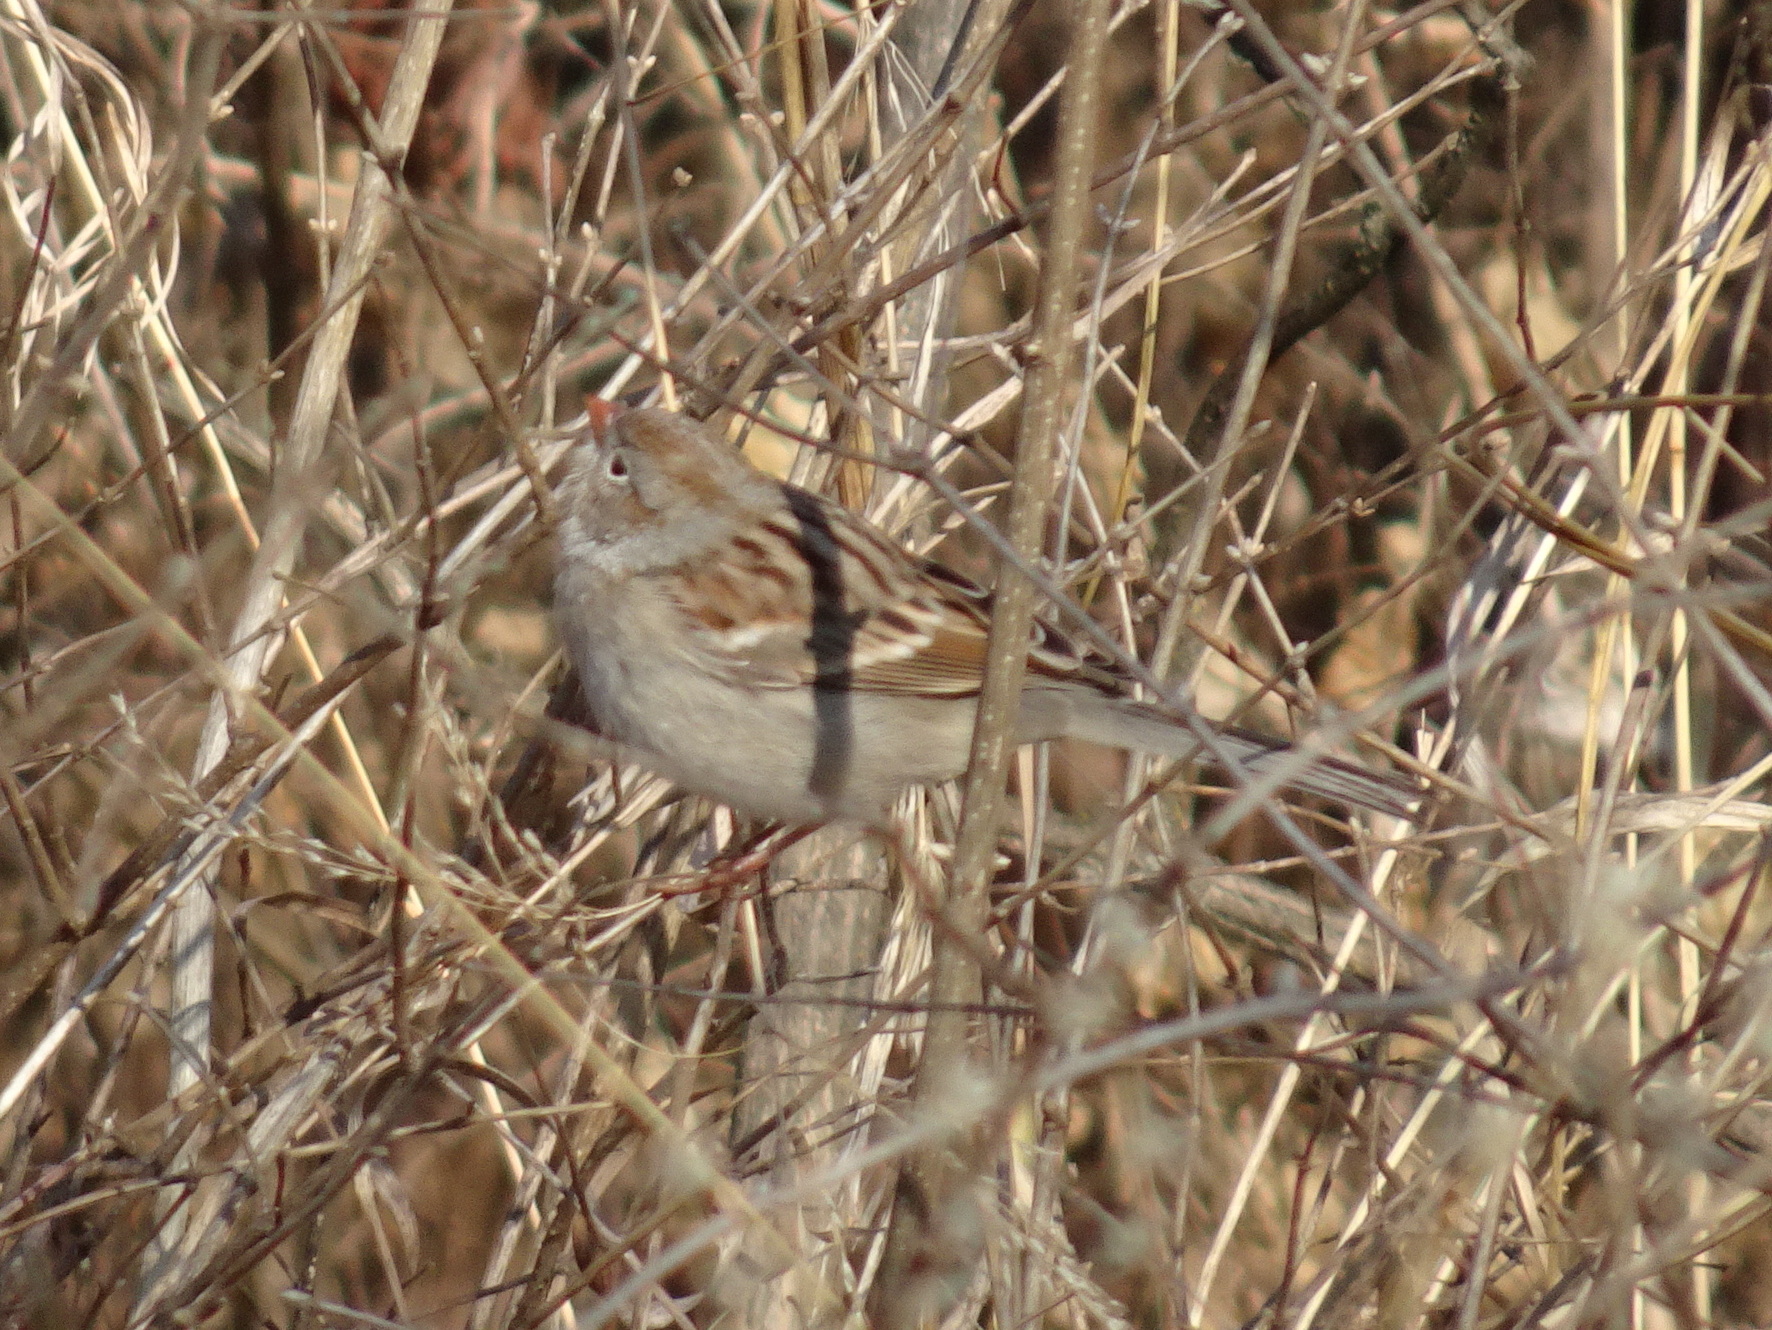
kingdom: Animalia
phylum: Chordata
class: Aves
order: Passeriformes
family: Passerellidae
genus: Spizella
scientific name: Spizella pusilla
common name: Field sparrow
